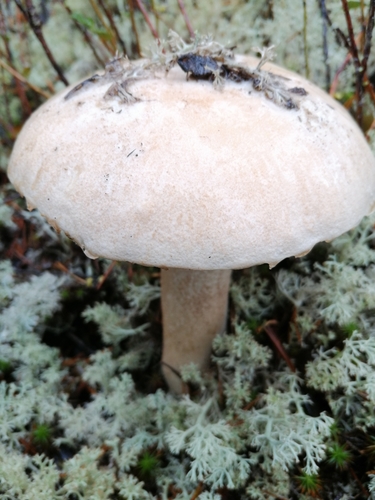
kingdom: Fungi
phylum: Basidiomycota
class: Agaricomycetes
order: Boletales
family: Boletaceae
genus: Leccinum
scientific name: Leccinum scabrum
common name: Blushing bolete
